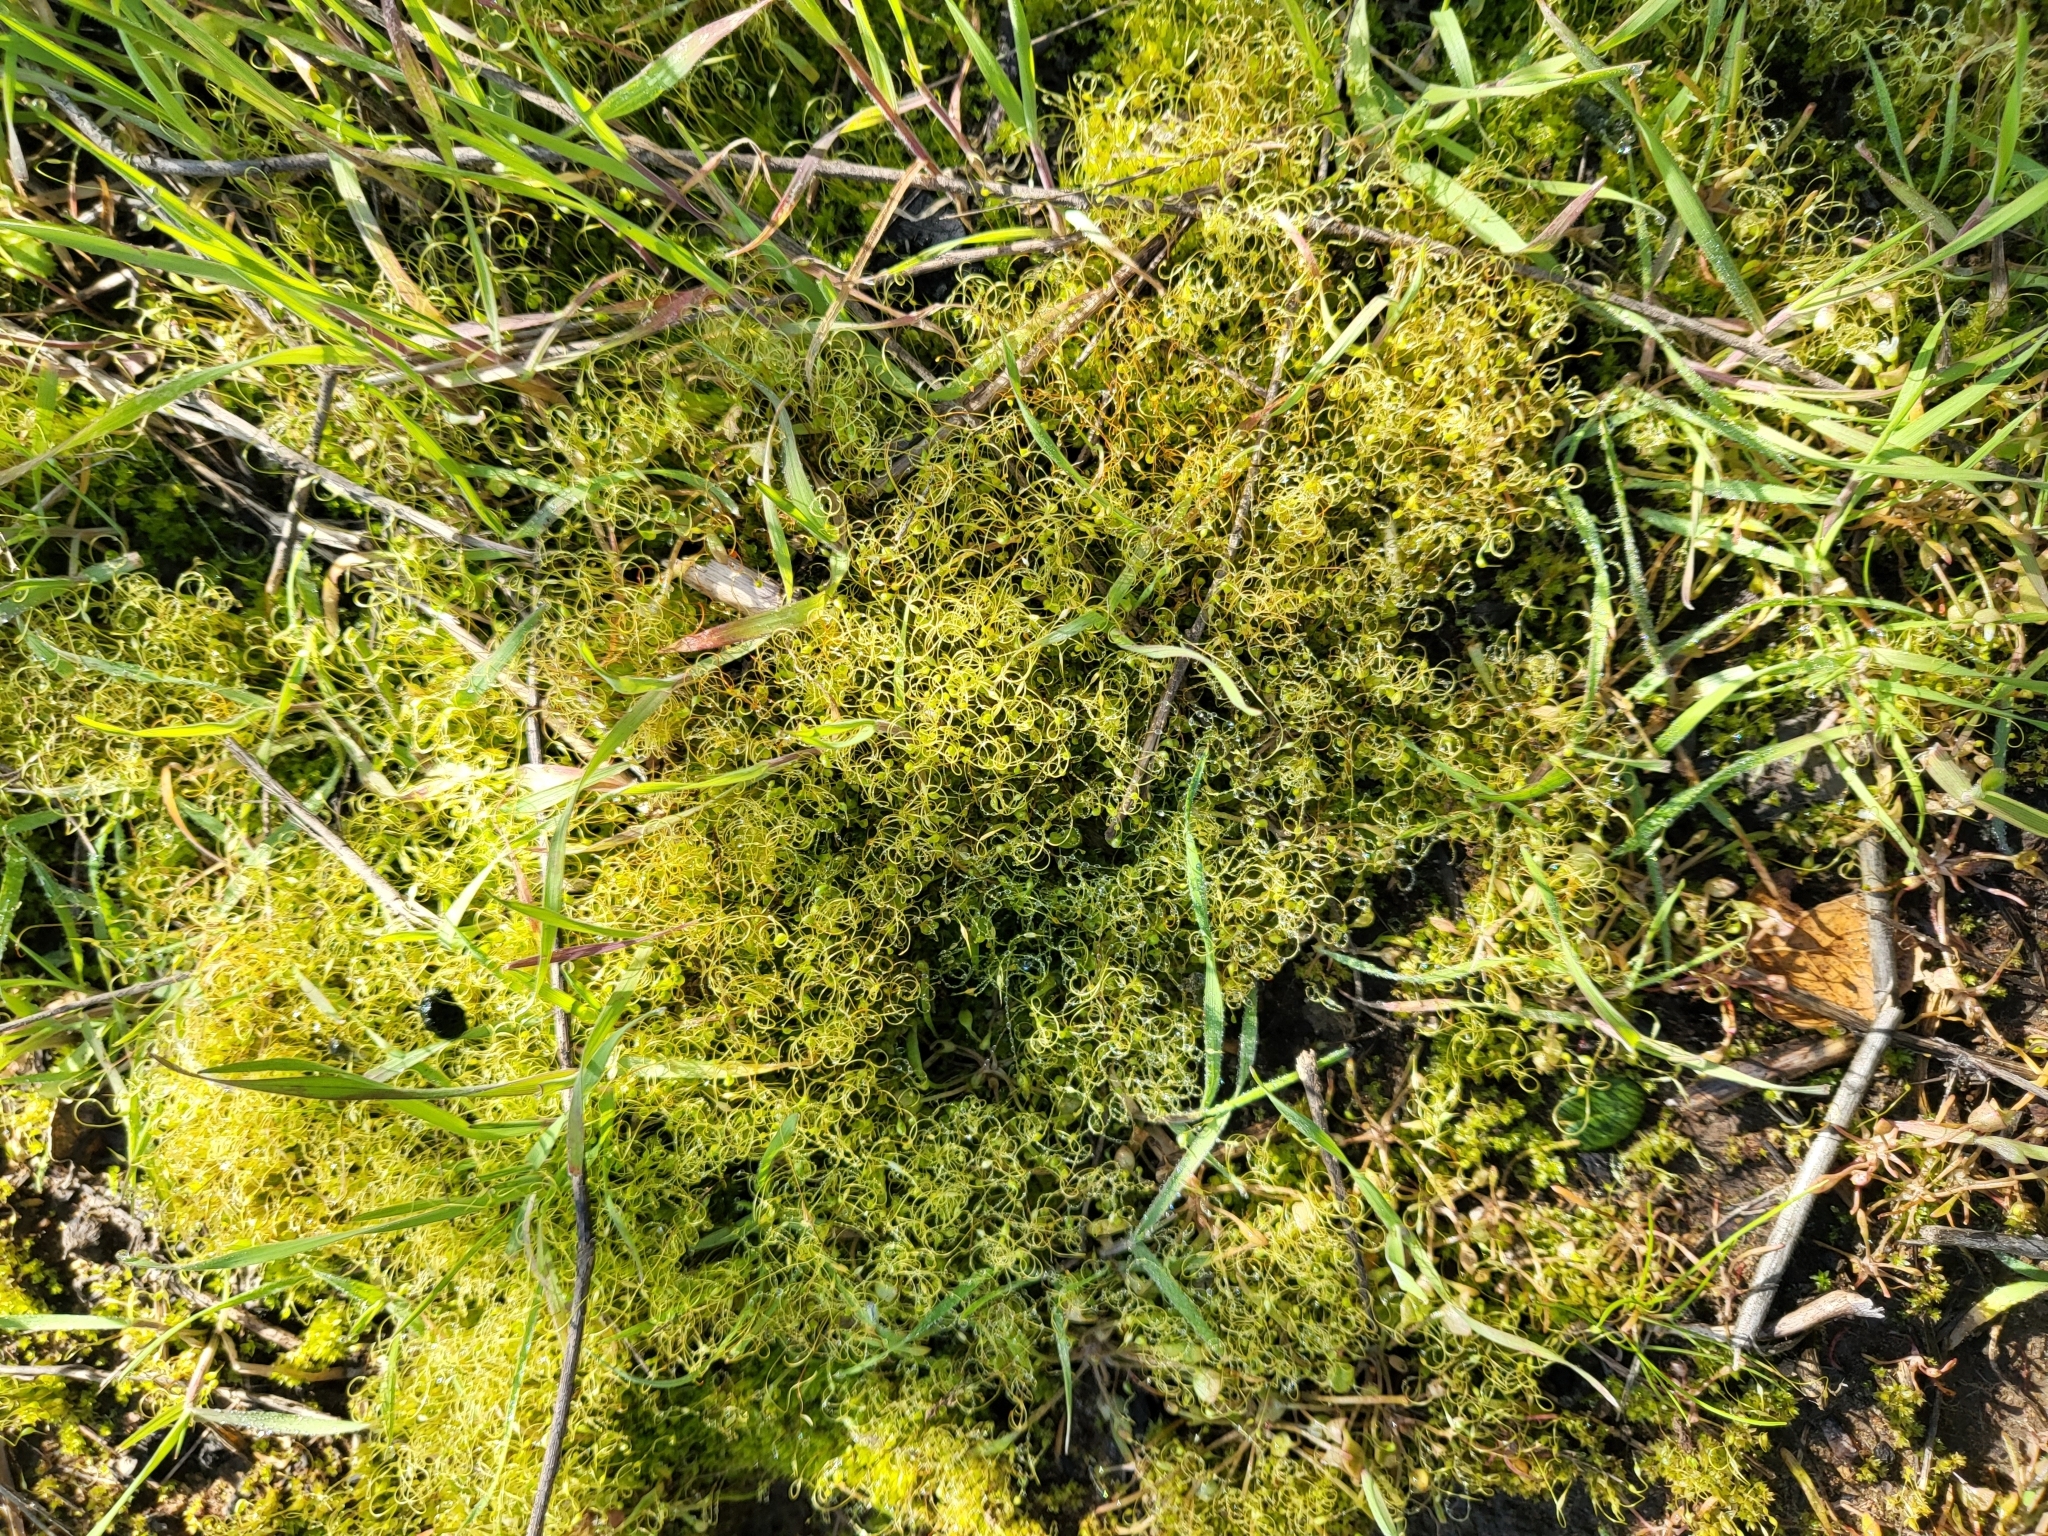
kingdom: Plantae
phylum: Bryophyta
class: Bryopsida
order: Funariales
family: Funariaceae
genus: Funaria
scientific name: Funaria hygrometrica
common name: Common cord moss
